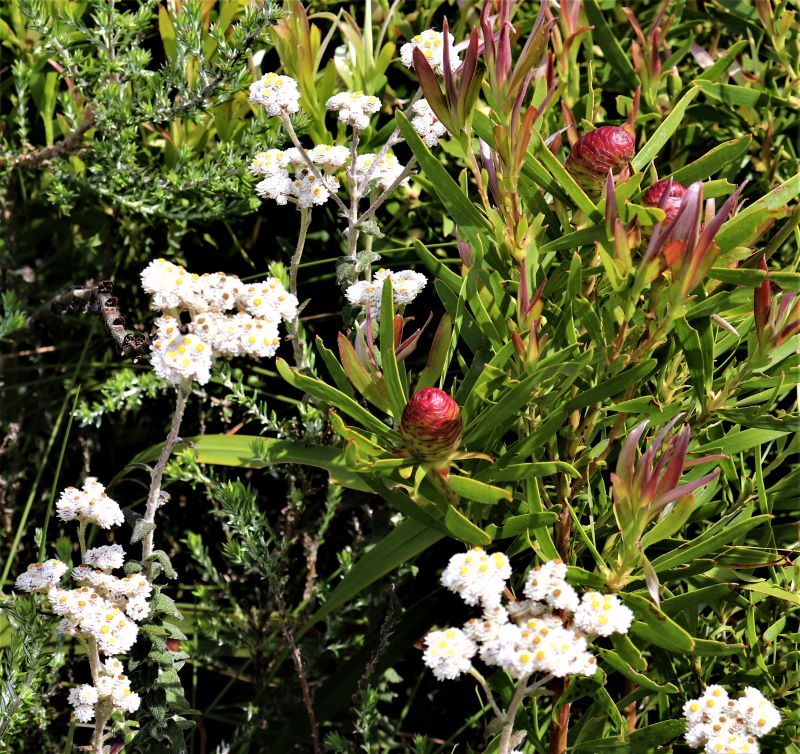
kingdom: Plantae
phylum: Tracheophyta
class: Magnoliopsida
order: Asterales
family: Asteraceae
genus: Helichrysum
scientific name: Helichrysum felinum
